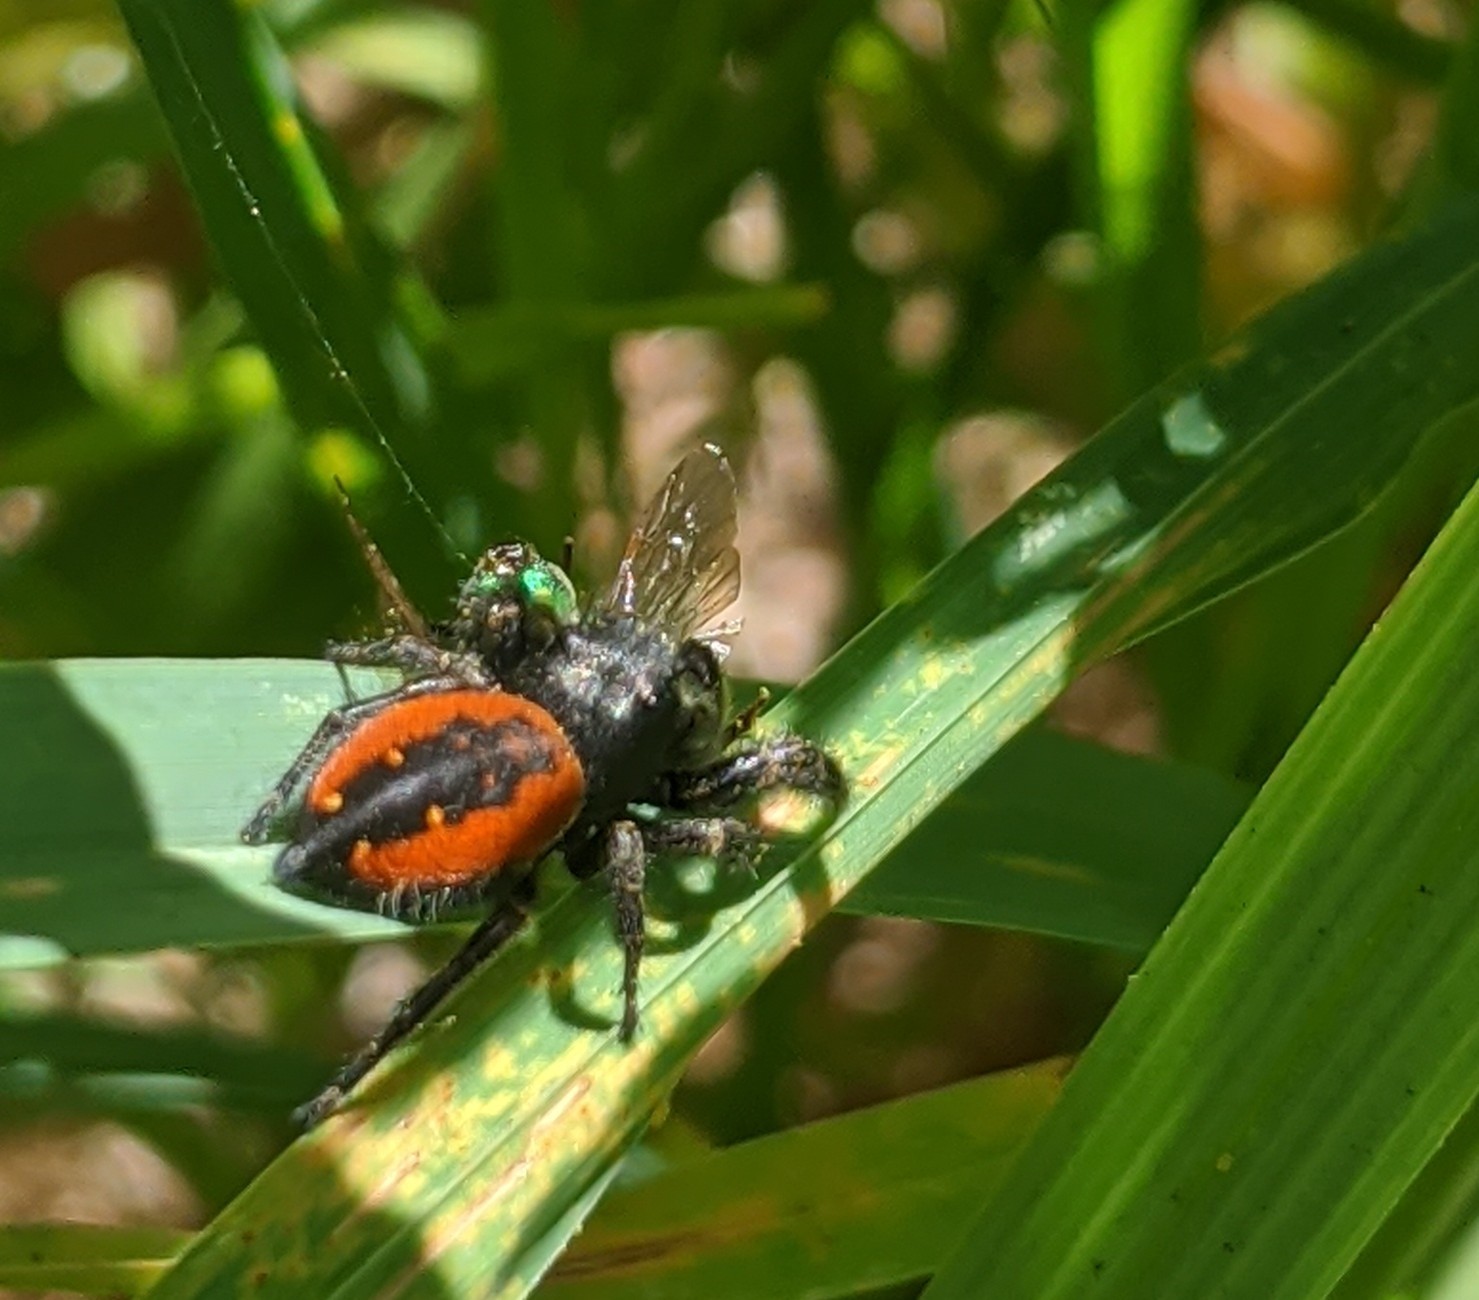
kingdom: Animalia
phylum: Arthropoda
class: Arachnida
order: Araneae
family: Salticidae
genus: Phidippus
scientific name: Phidippus johnsoni
